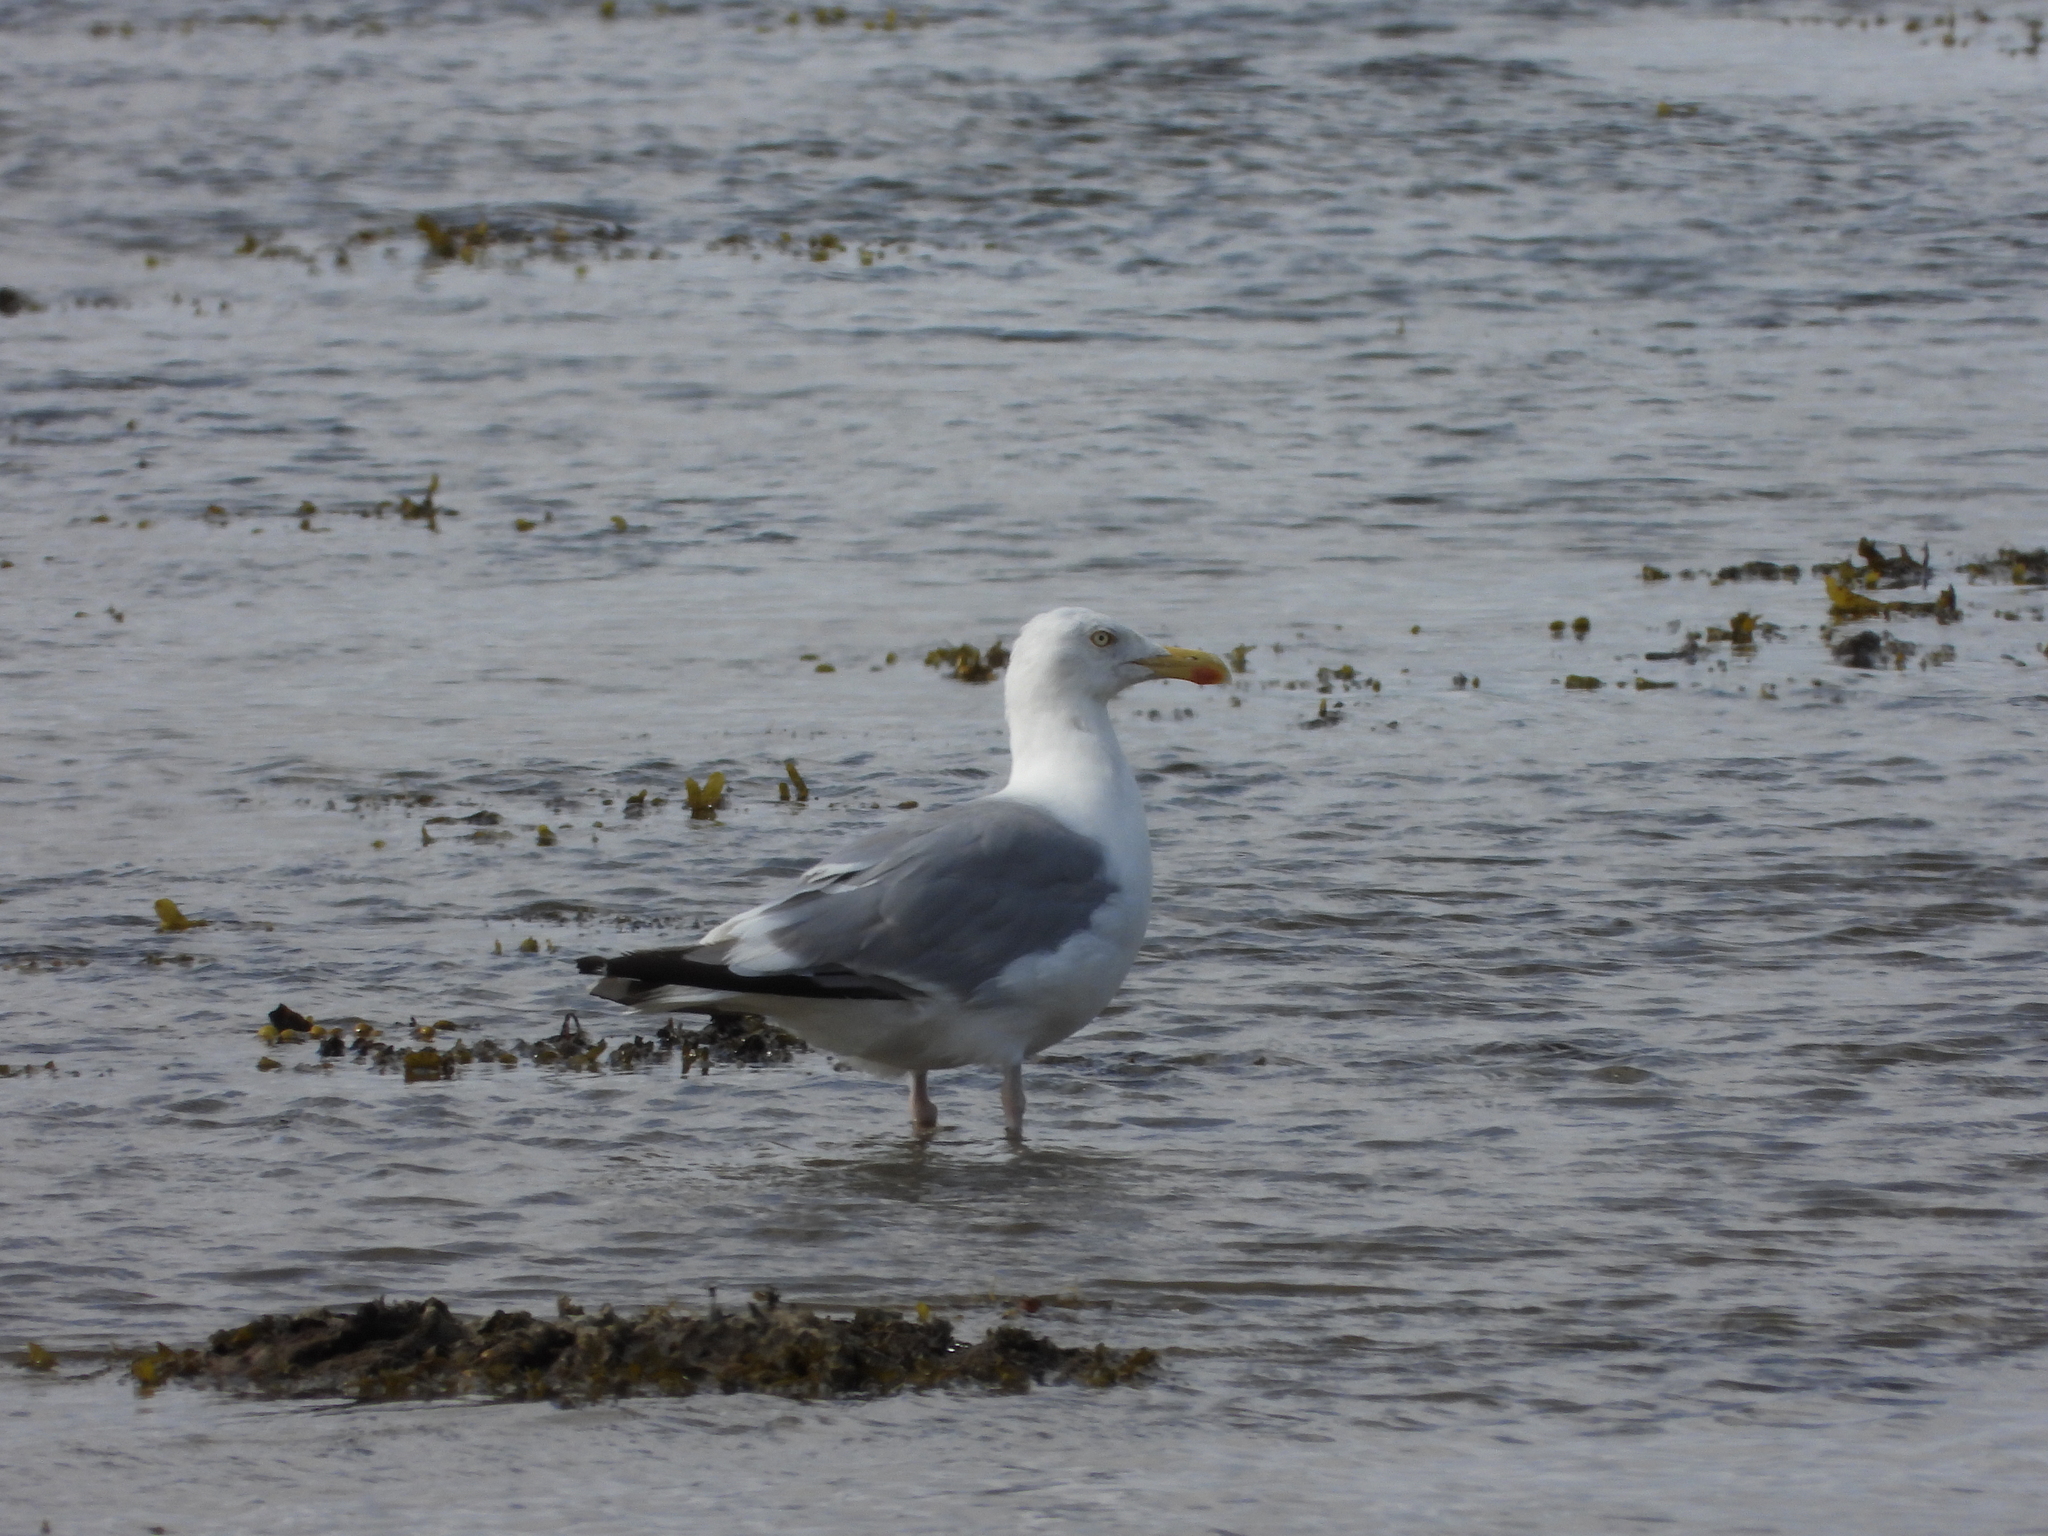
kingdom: Animalia
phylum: Chordata
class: Aves
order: Charadriiformes
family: Laridae
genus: Larus
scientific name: Larus argentatus
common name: Herring gull
